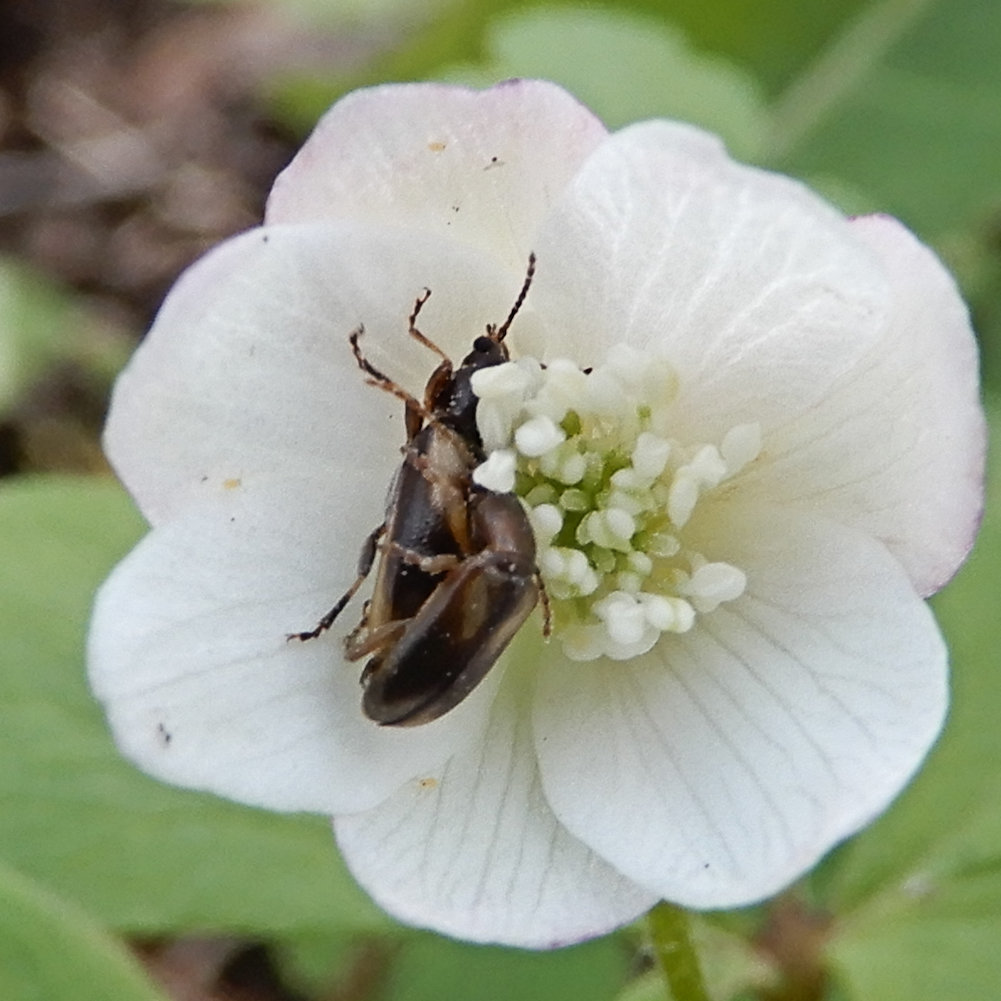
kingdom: Animalia
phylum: Arthropoda
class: Insecta
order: Coleoptera
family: Orsodacnidae
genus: Orsodacne
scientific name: Orsodacne atra
